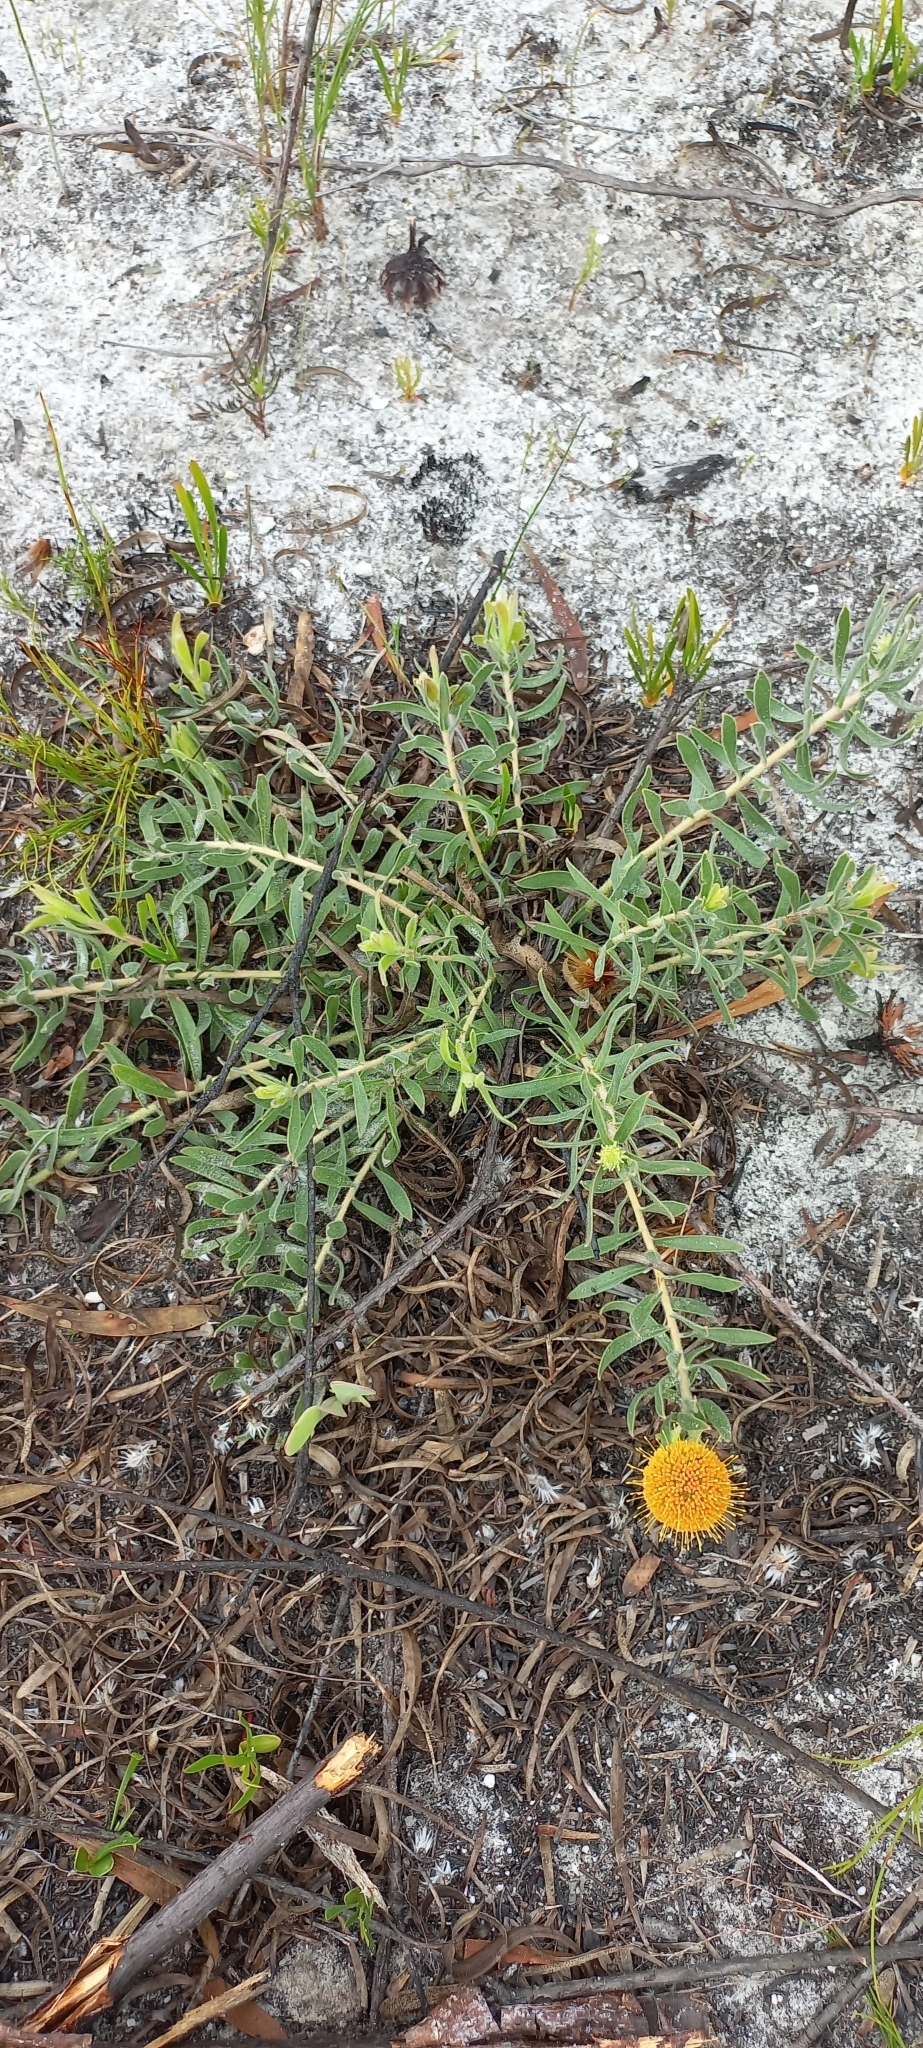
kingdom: Plantae
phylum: Tracheophyta
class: Magnoliopsida
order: Proteales
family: Proteaceae
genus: Leucospermum
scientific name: Leucospermum prostratum
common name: Yellow-trailing pincushion
